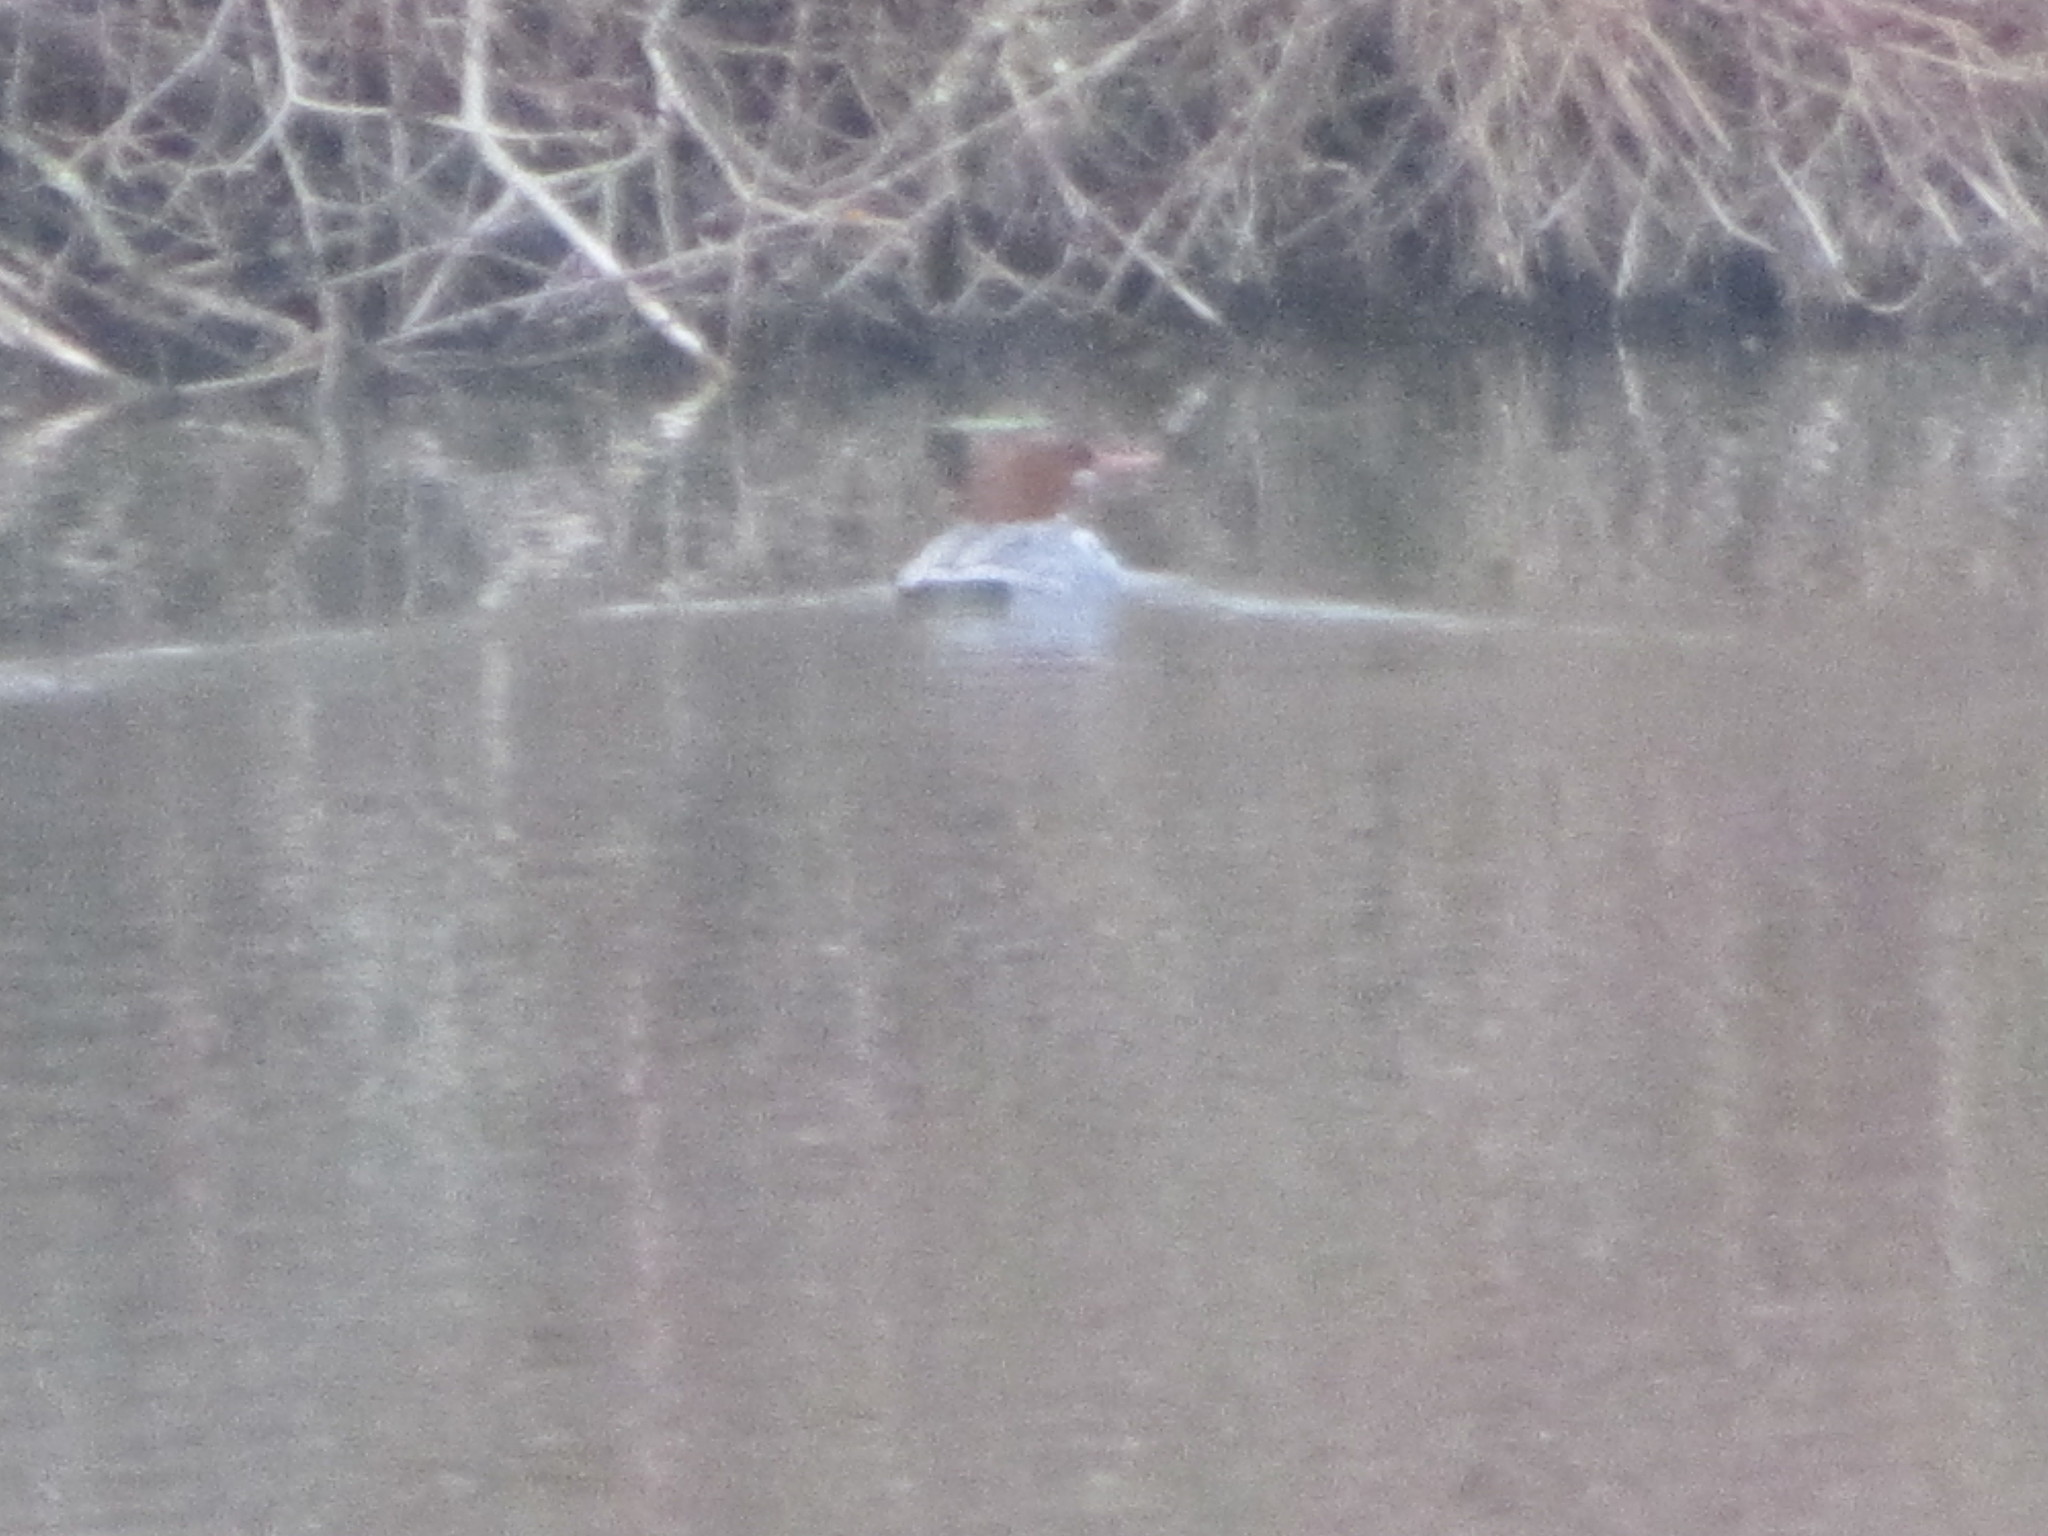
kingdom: Animalia
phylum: Chordata
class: Aves
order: Anseriformes
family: Anatidae
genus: Mergus
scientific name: Mergus merganser
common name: Common merganser
